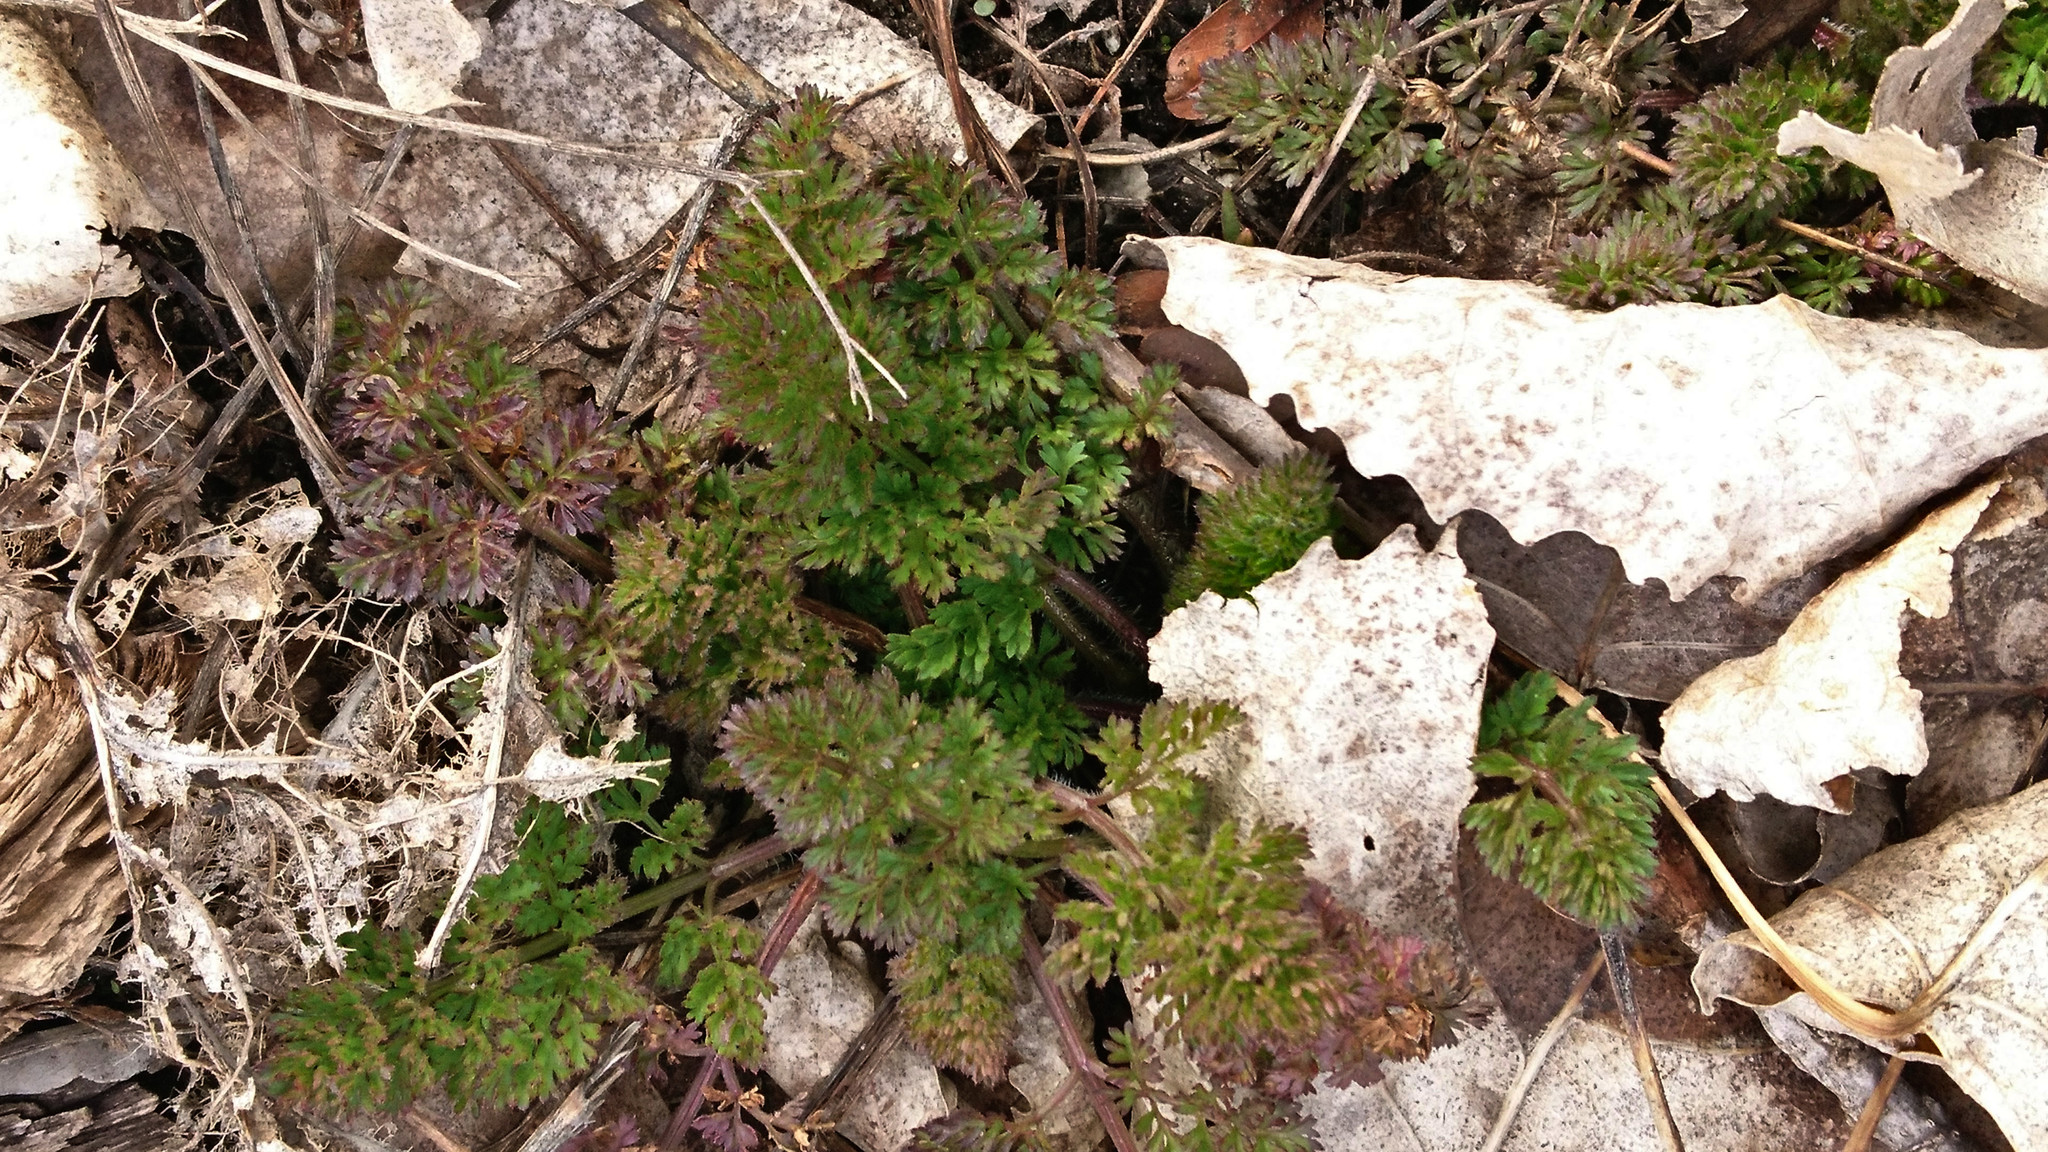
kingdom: Plantae
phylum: Tracheophyta
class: Magnoliopsida
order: Apiales
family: Apiaceae
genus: Daucus
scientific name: Daucus carota
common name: Wild carrot
